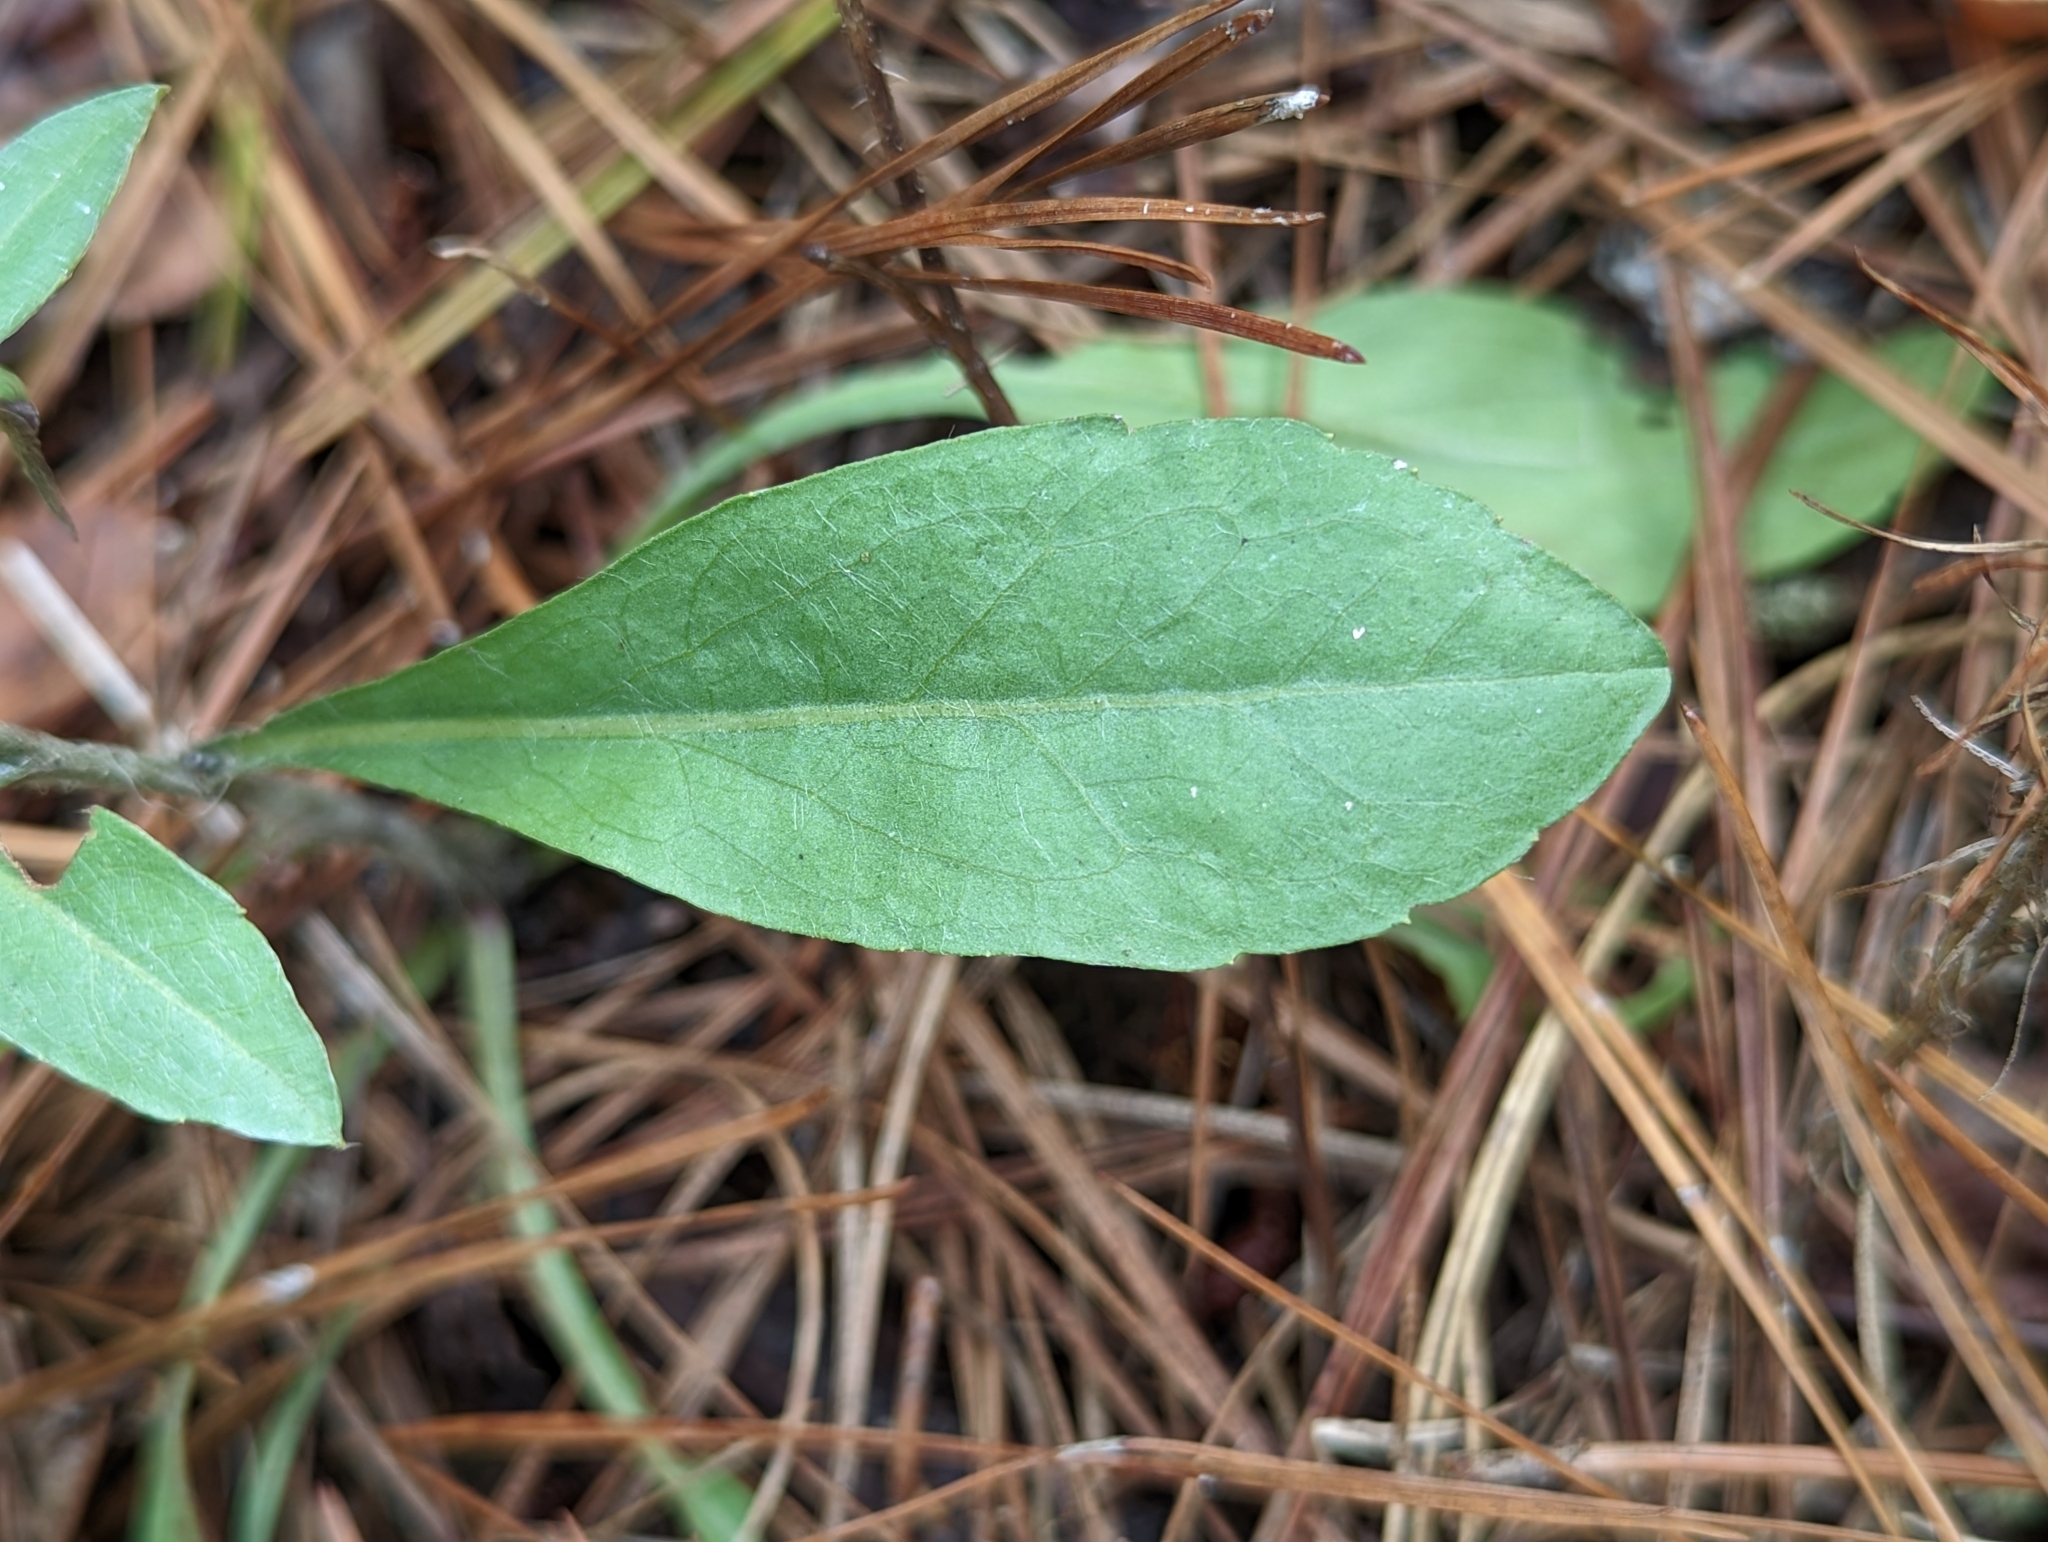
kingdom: Plantae
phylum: Tracheophyta
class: Magnoliopsida
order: Asterales
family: Asteraceae
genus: Chrysopsis
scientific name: Chrysopsis mariana
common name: Maryland golden-aster
